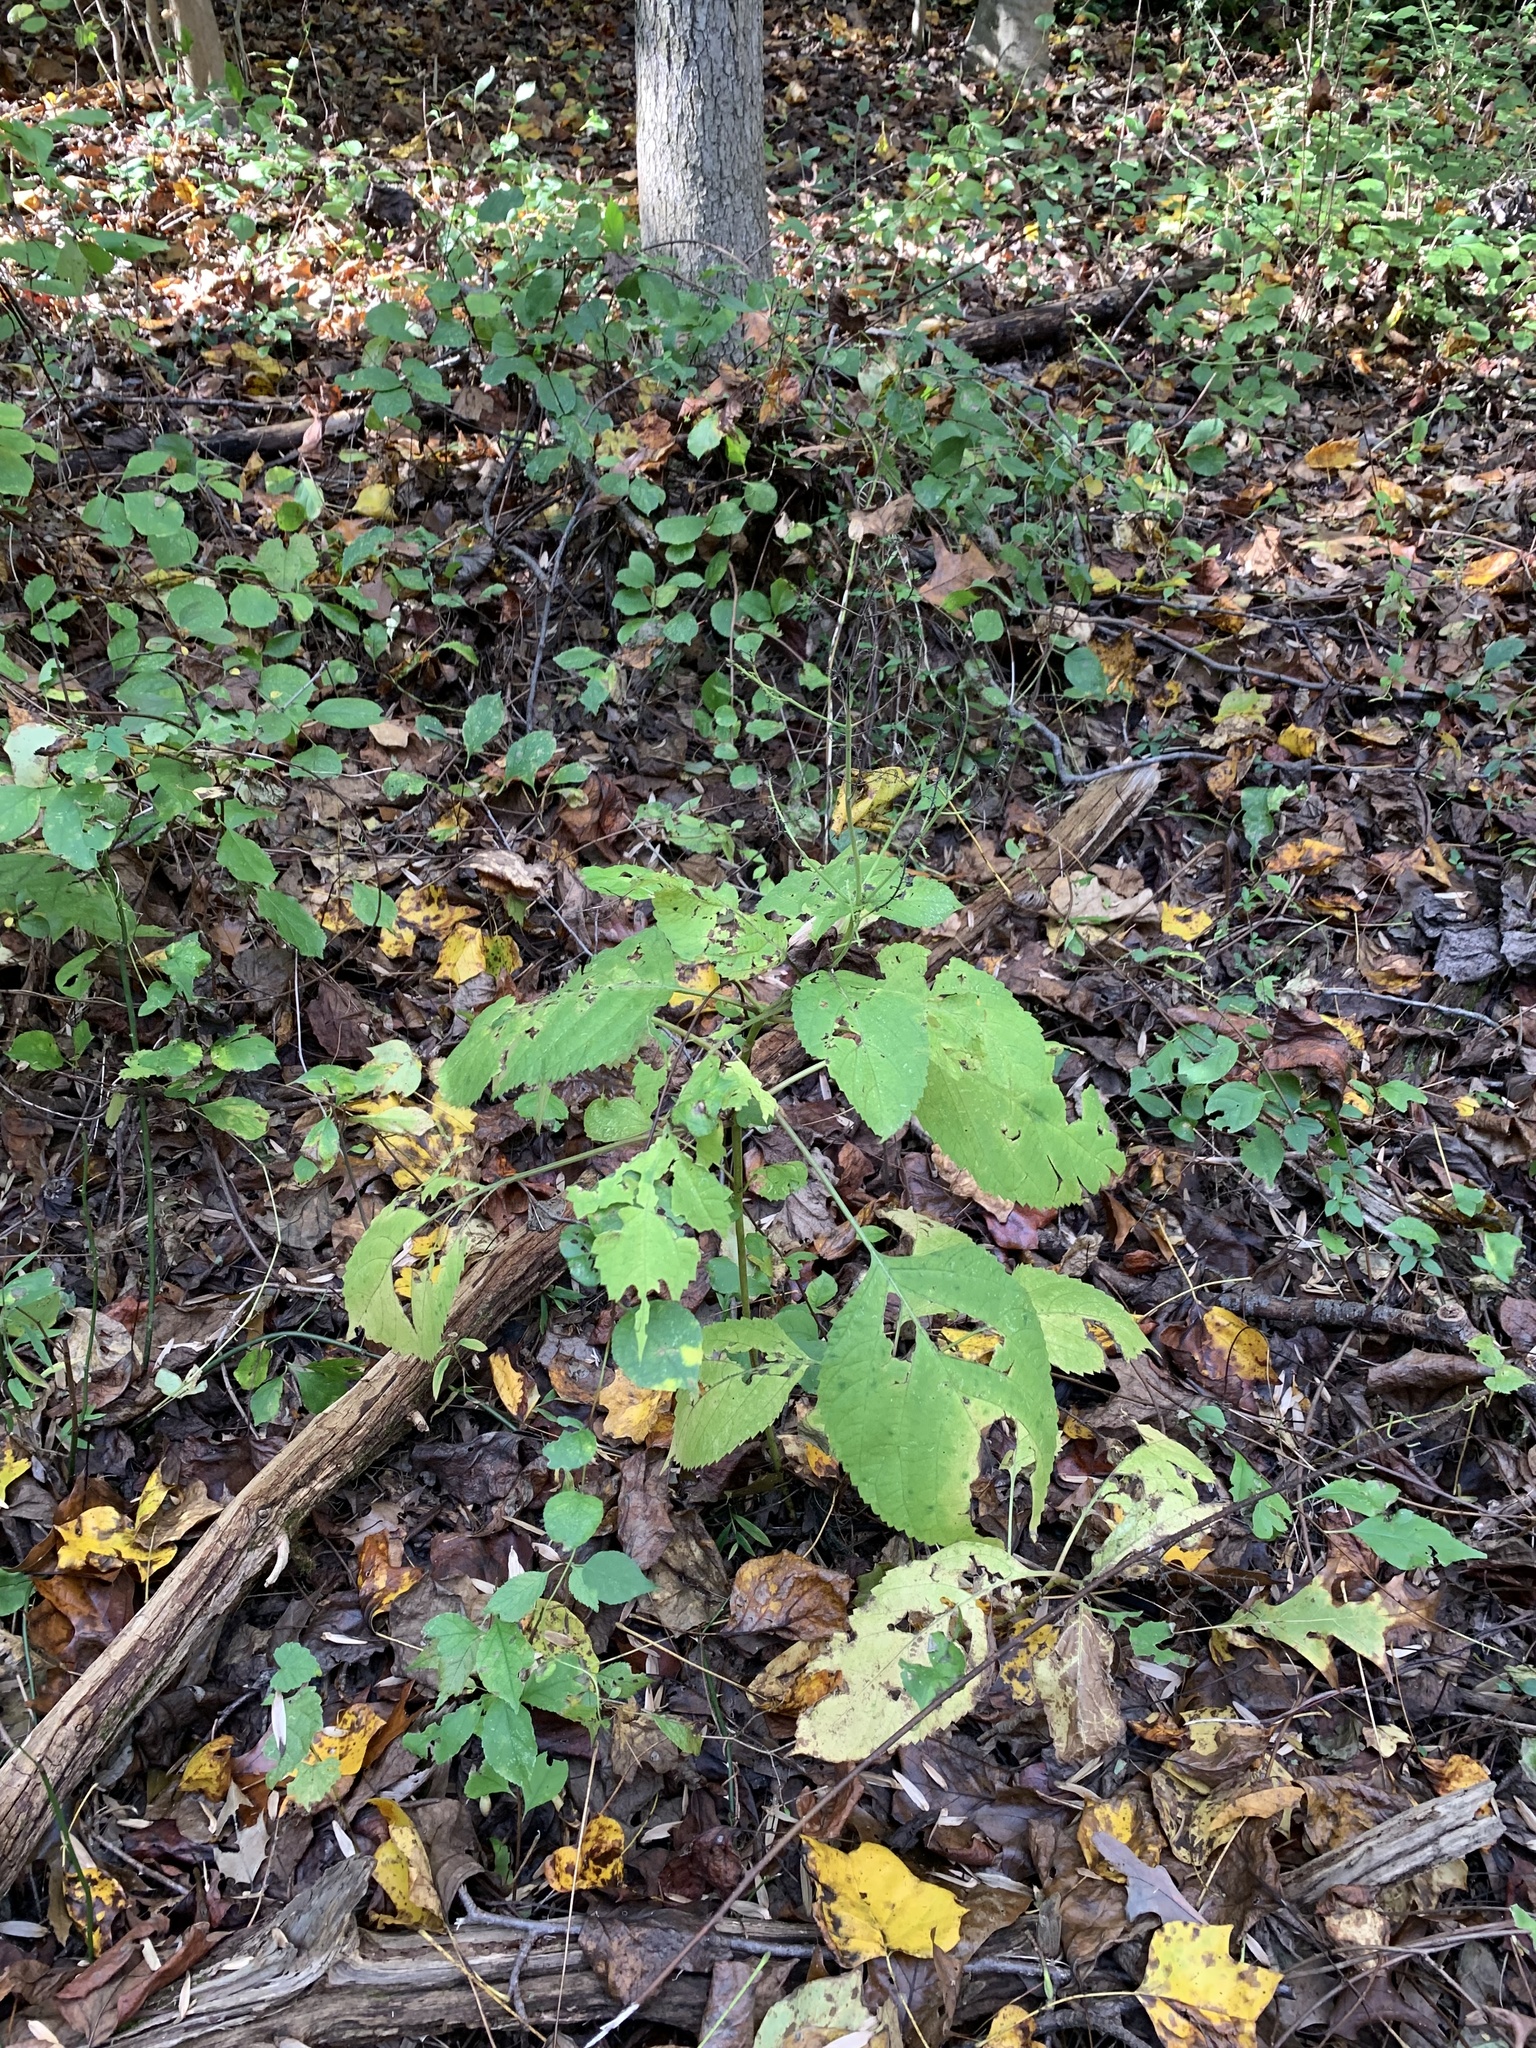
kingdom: Plantae
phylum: Tracheophyta
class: Magnoliopsida
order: Lamiales
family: Lamiaceae
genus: Collinsonia
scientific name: Collinsonia canadensis
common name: Northern horsebalm
